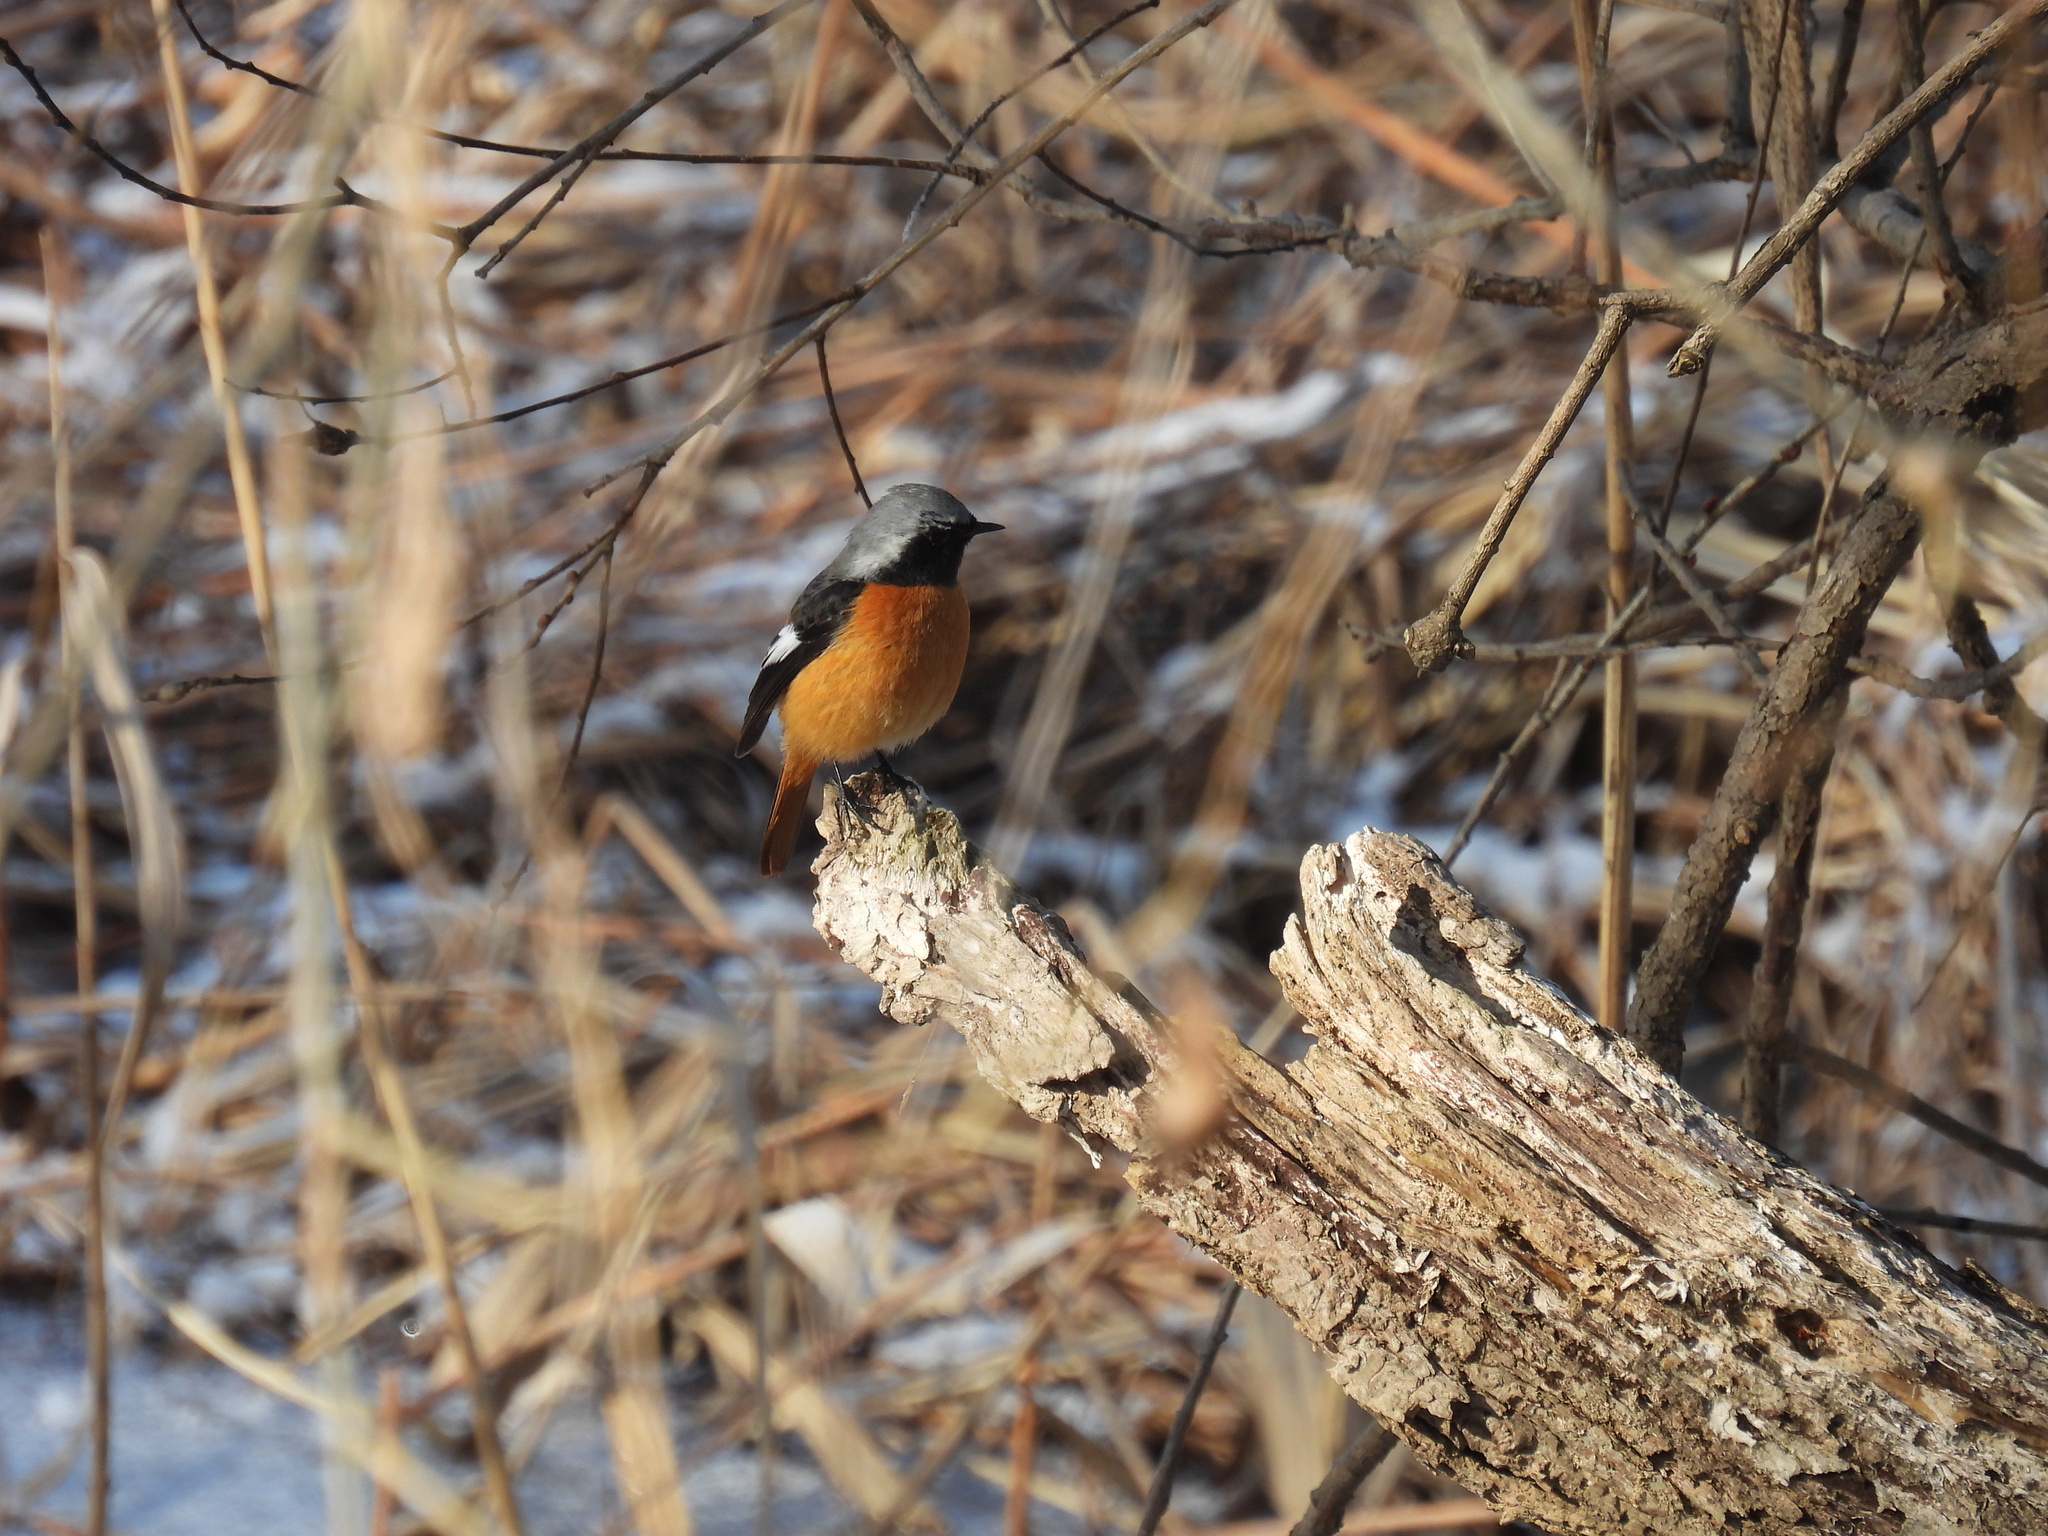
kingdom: Animalia
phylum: Chordata
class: Aves
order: Passeriformes
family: Muscicapidae
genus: Phoenicurus
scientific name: Phoenicurus auroreus
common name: Daurian redstart
